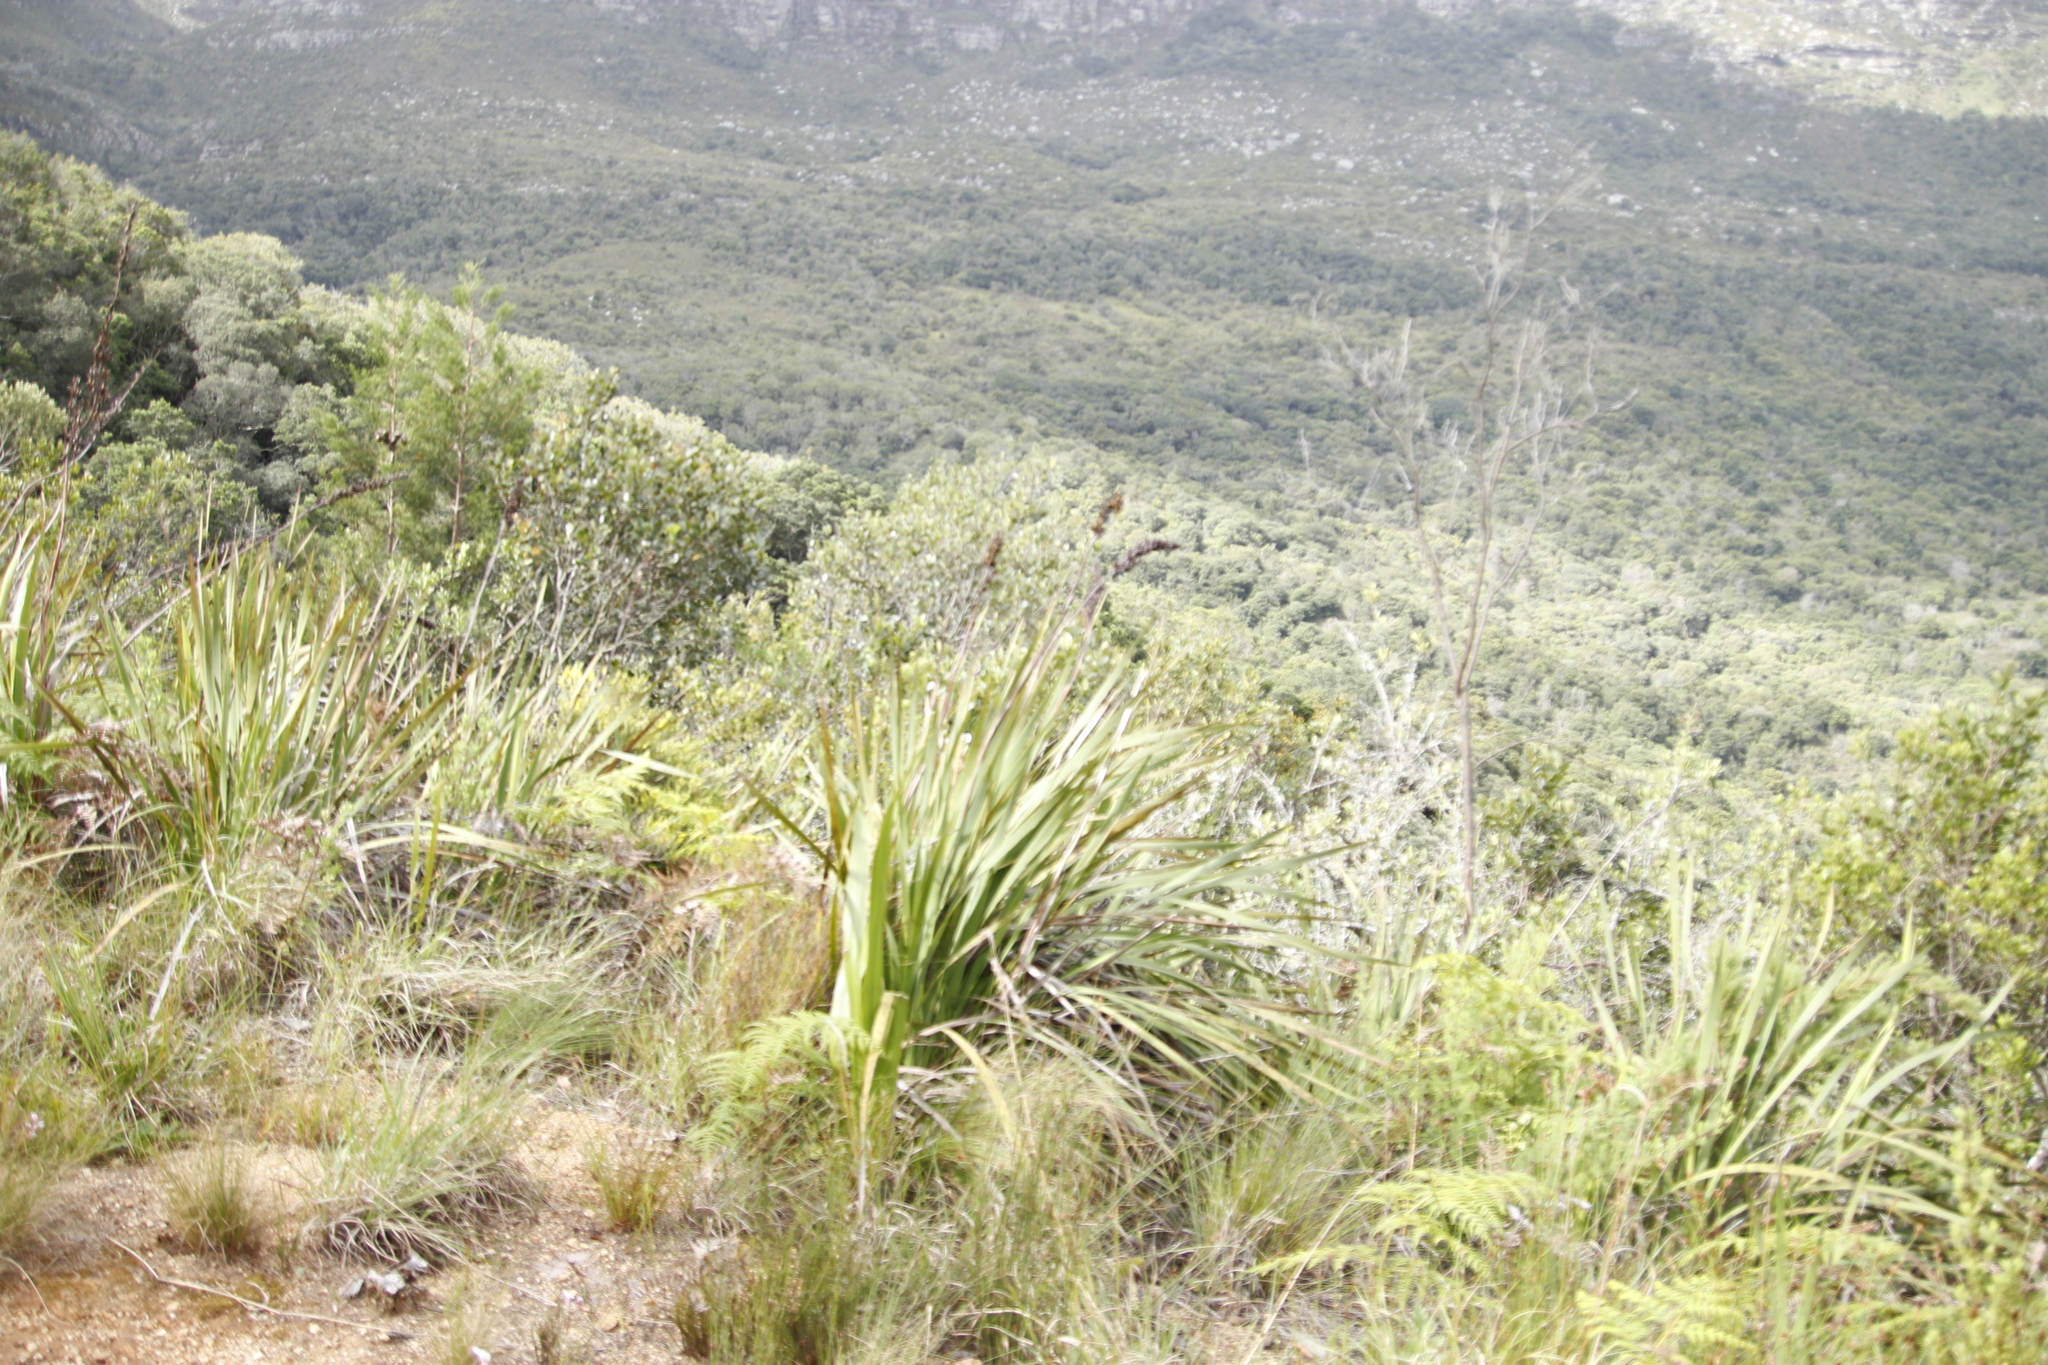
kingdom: Plantae
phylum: Tracheophyta
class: Liliopsida
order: Asparagales
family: Iridaceae
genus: Aristea
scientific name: Aristea capitata
